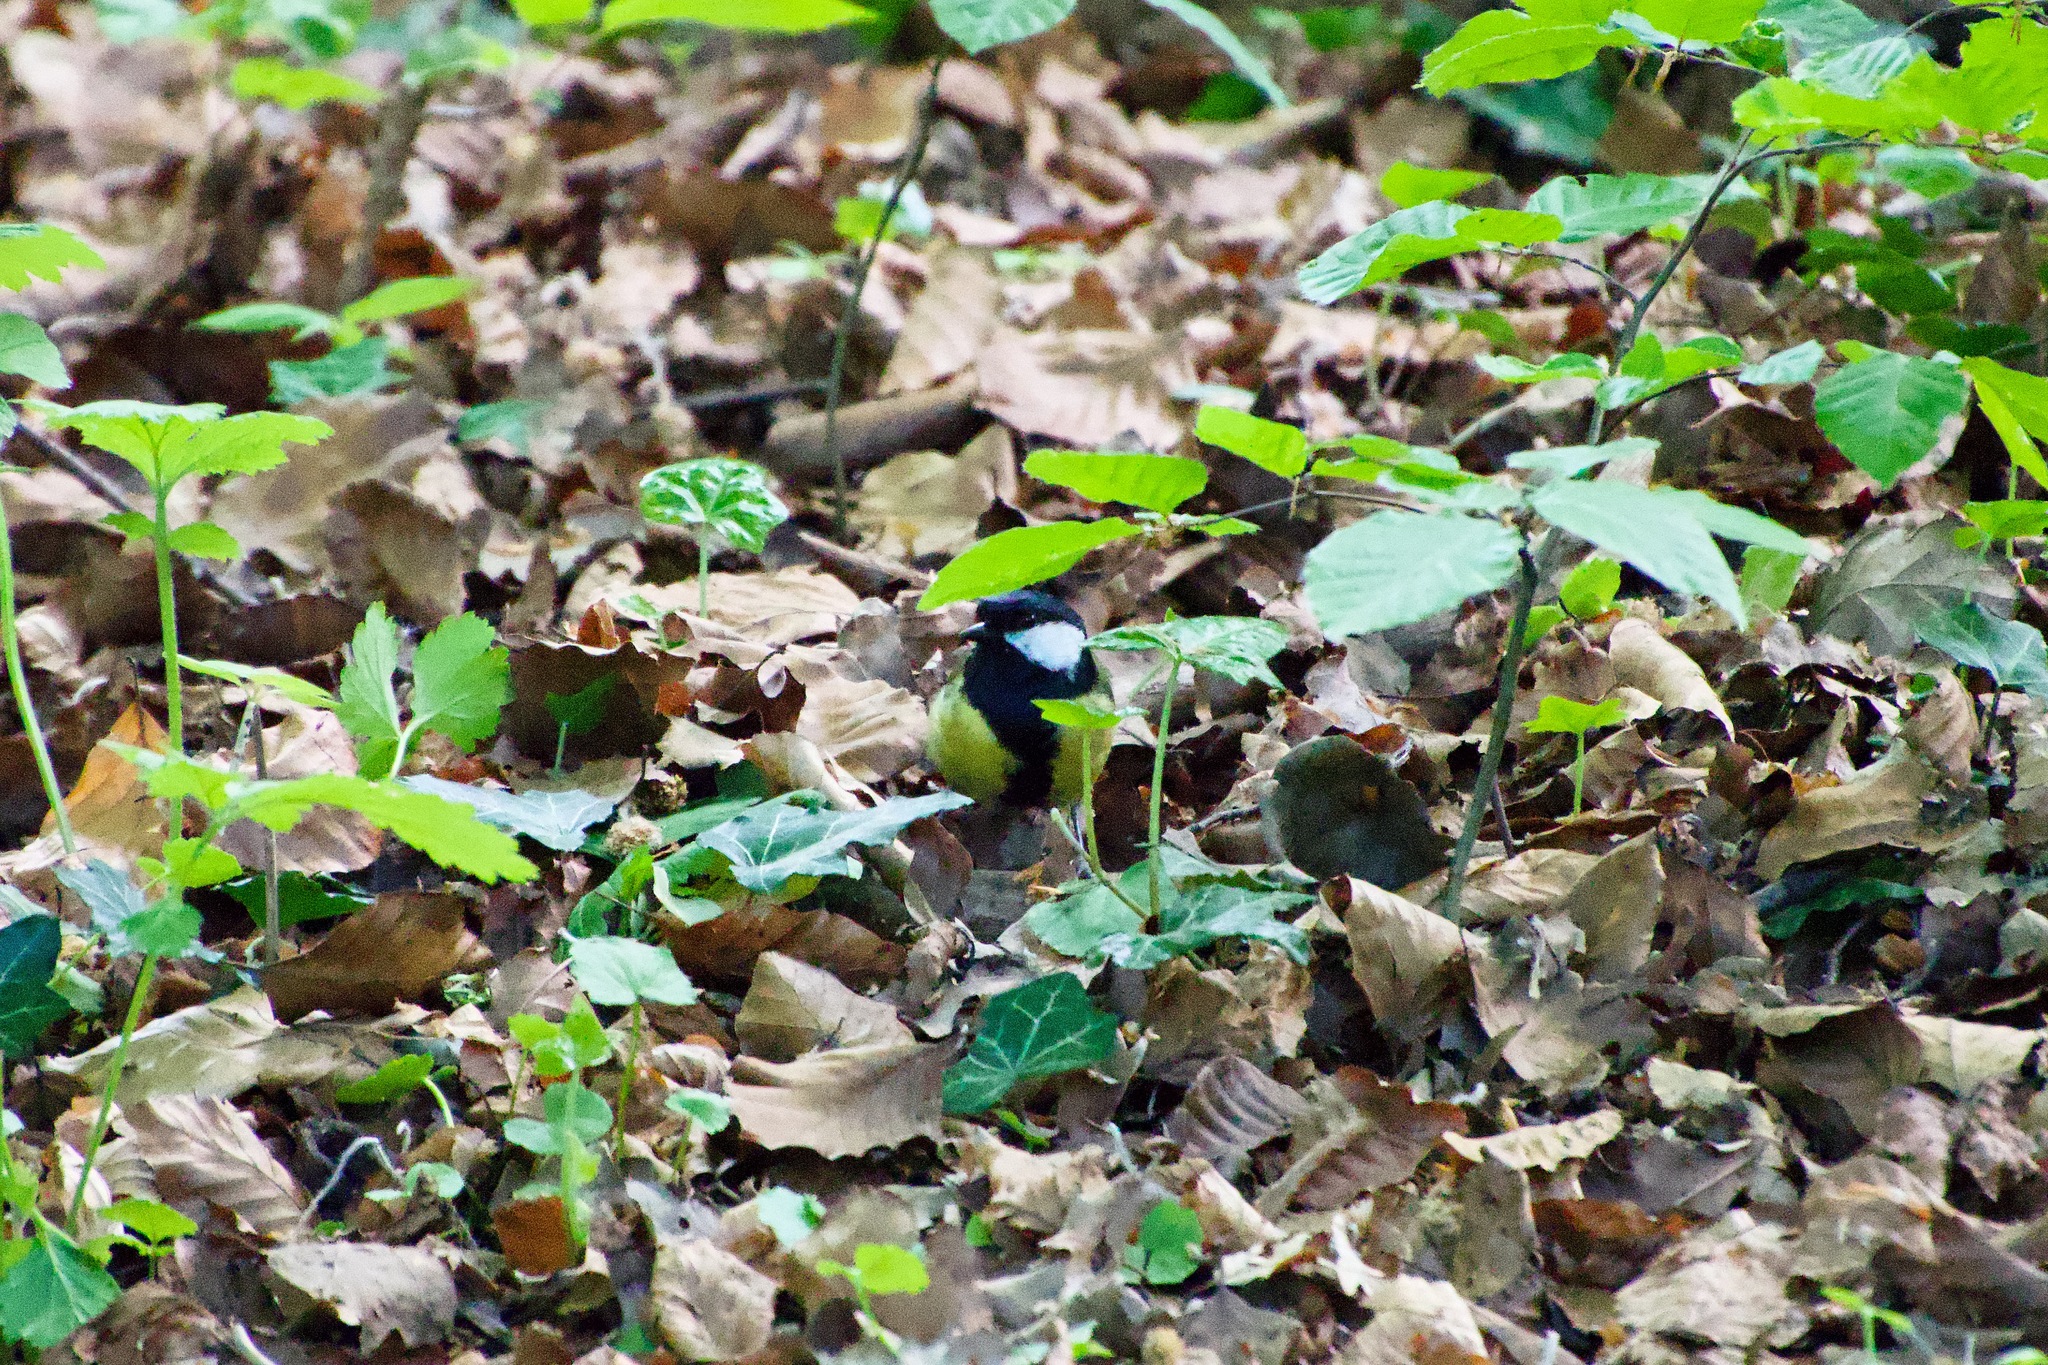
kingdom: Animalia
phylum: Chordata
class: Aves
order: Passeriformes
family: Paridae
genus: Parus
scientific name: Parus major
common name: Great tit
